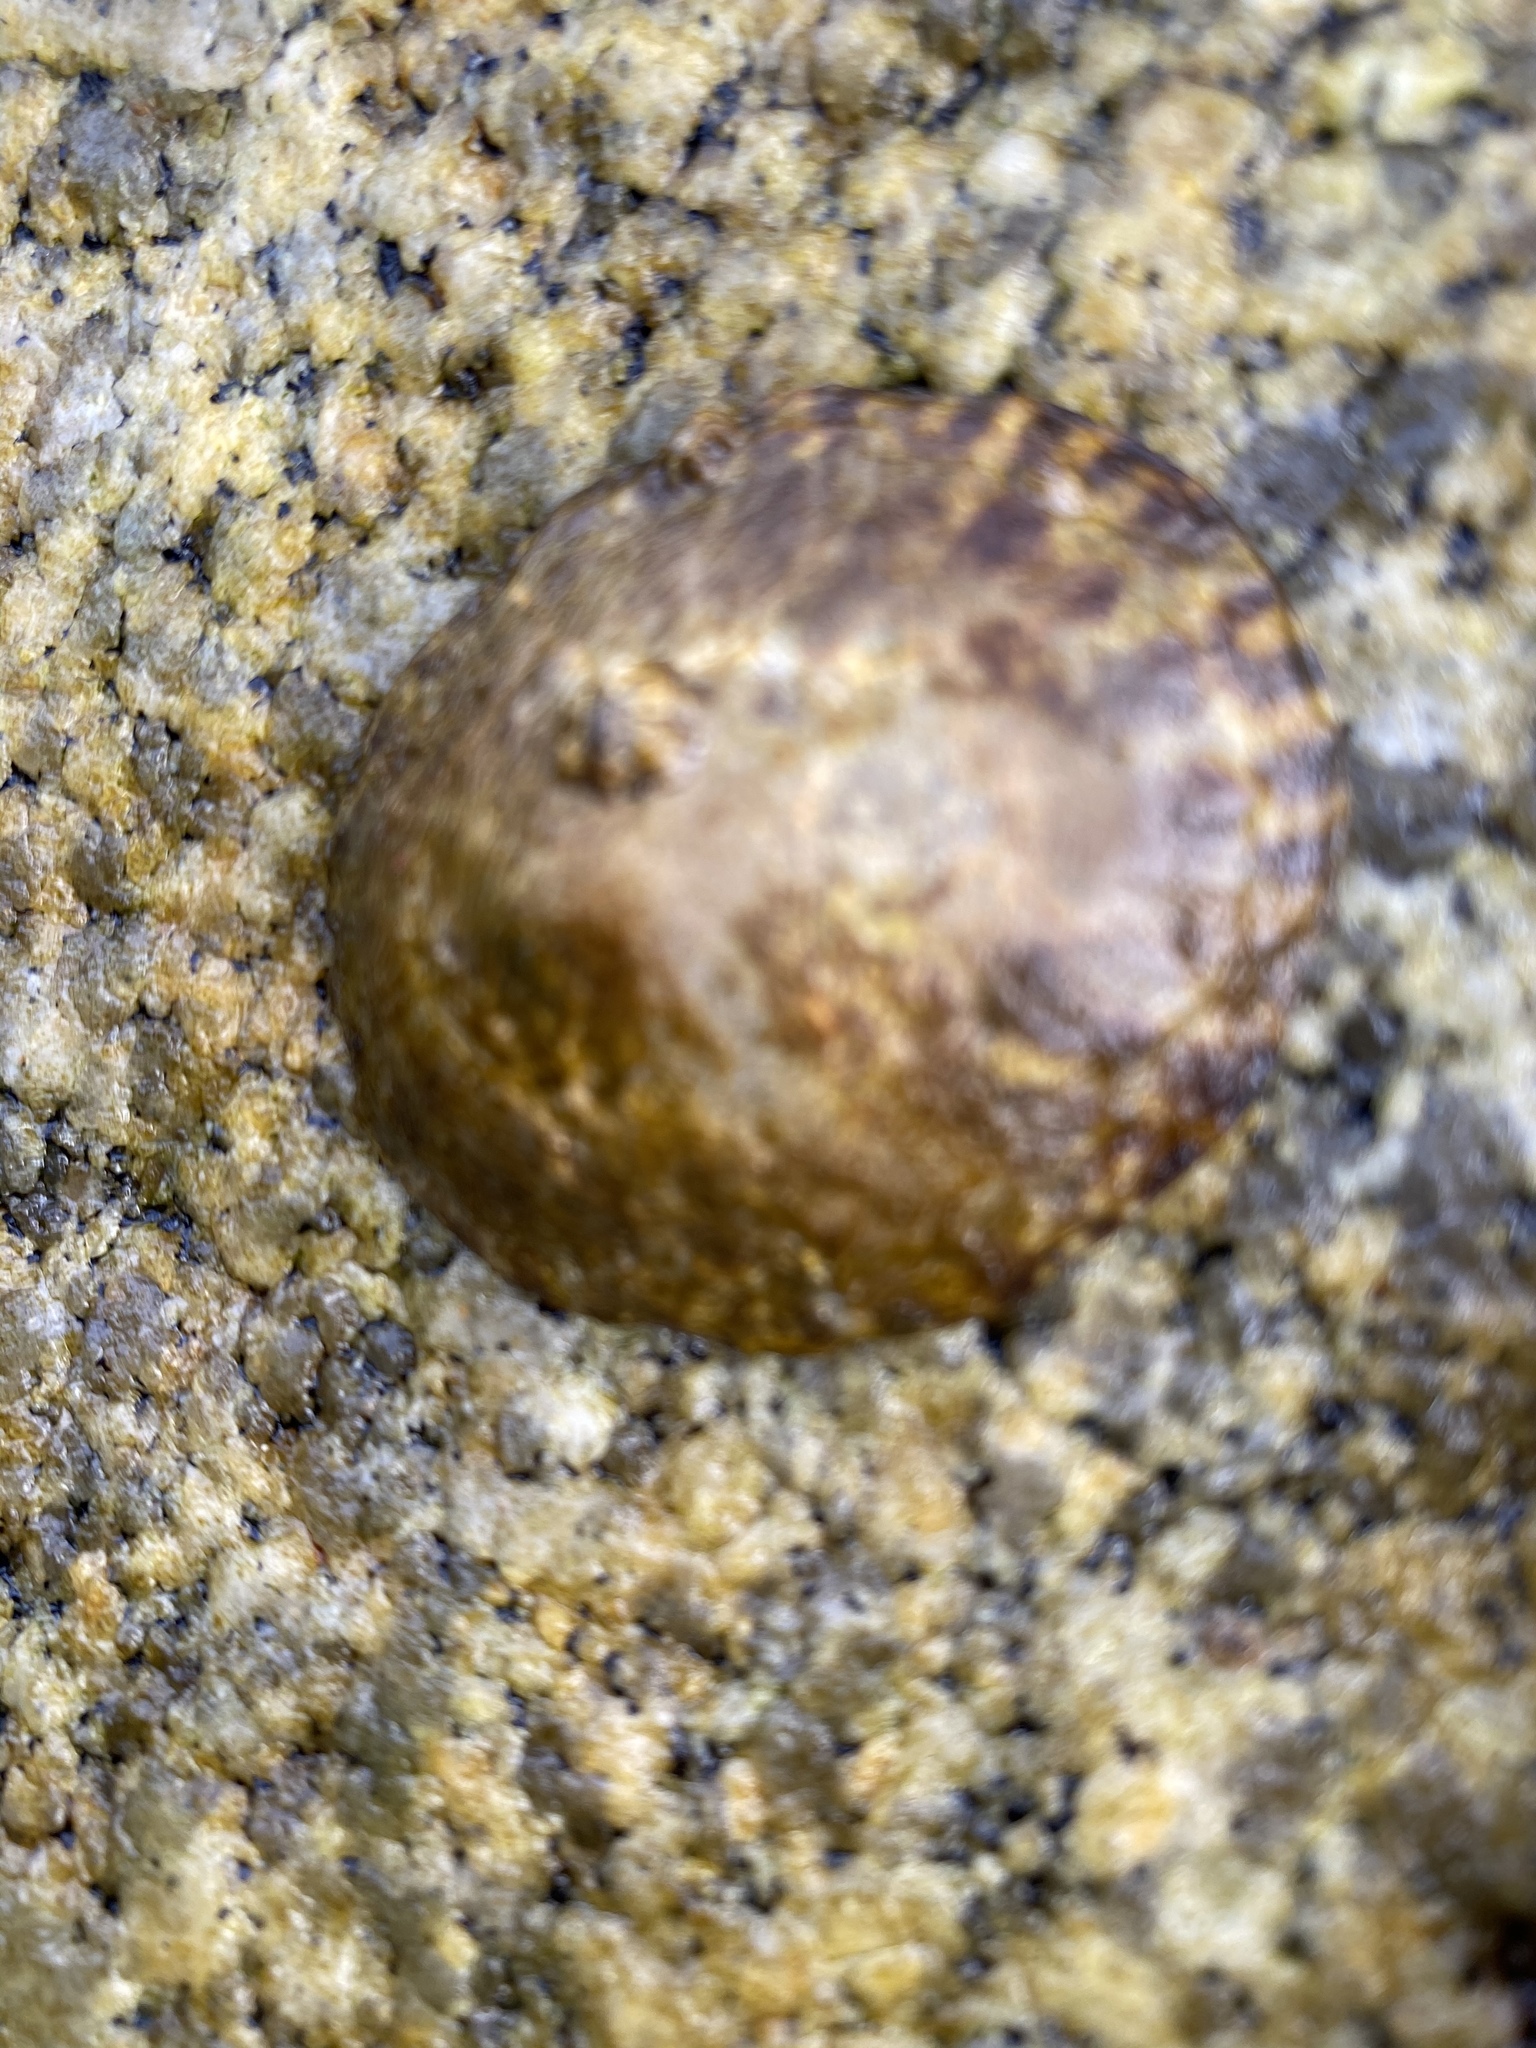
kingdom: Animalia
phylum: Mollusca
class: Gastropoda
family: Lottiidae
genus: Lottia
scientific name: Lottia gigantea
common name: Owl limpet
